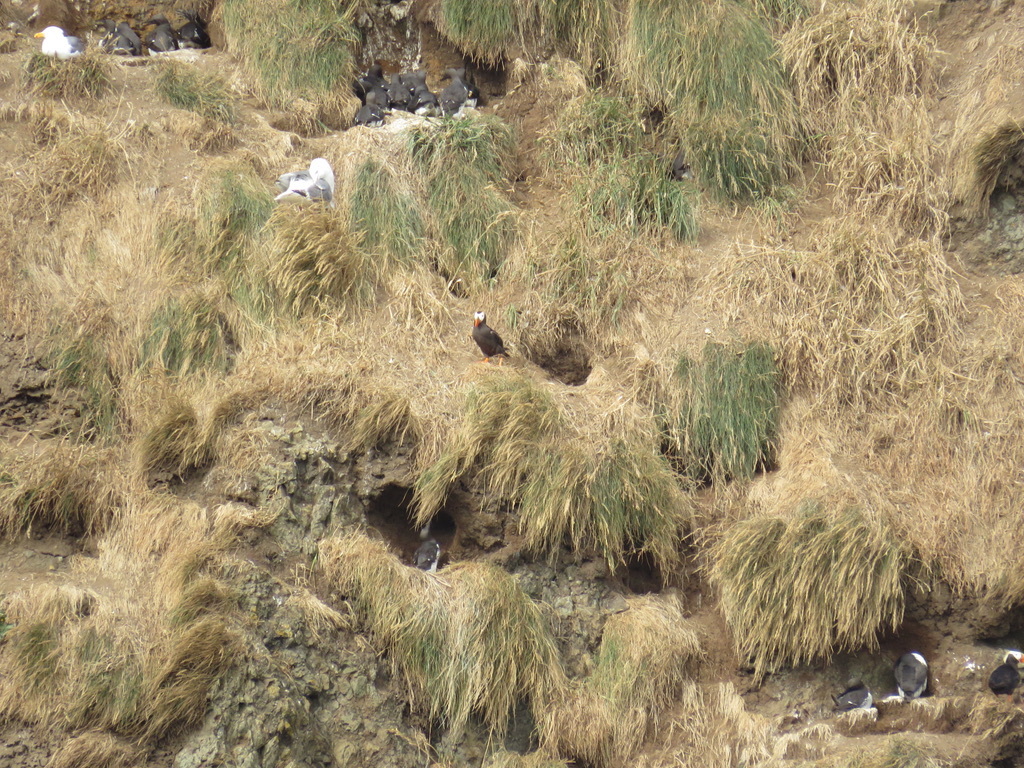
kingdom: Animalia
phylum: Chordata
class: Aves
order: Charadriiformes
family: Alcidae
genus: Uria
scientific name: Uria aalge
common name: Common murre
